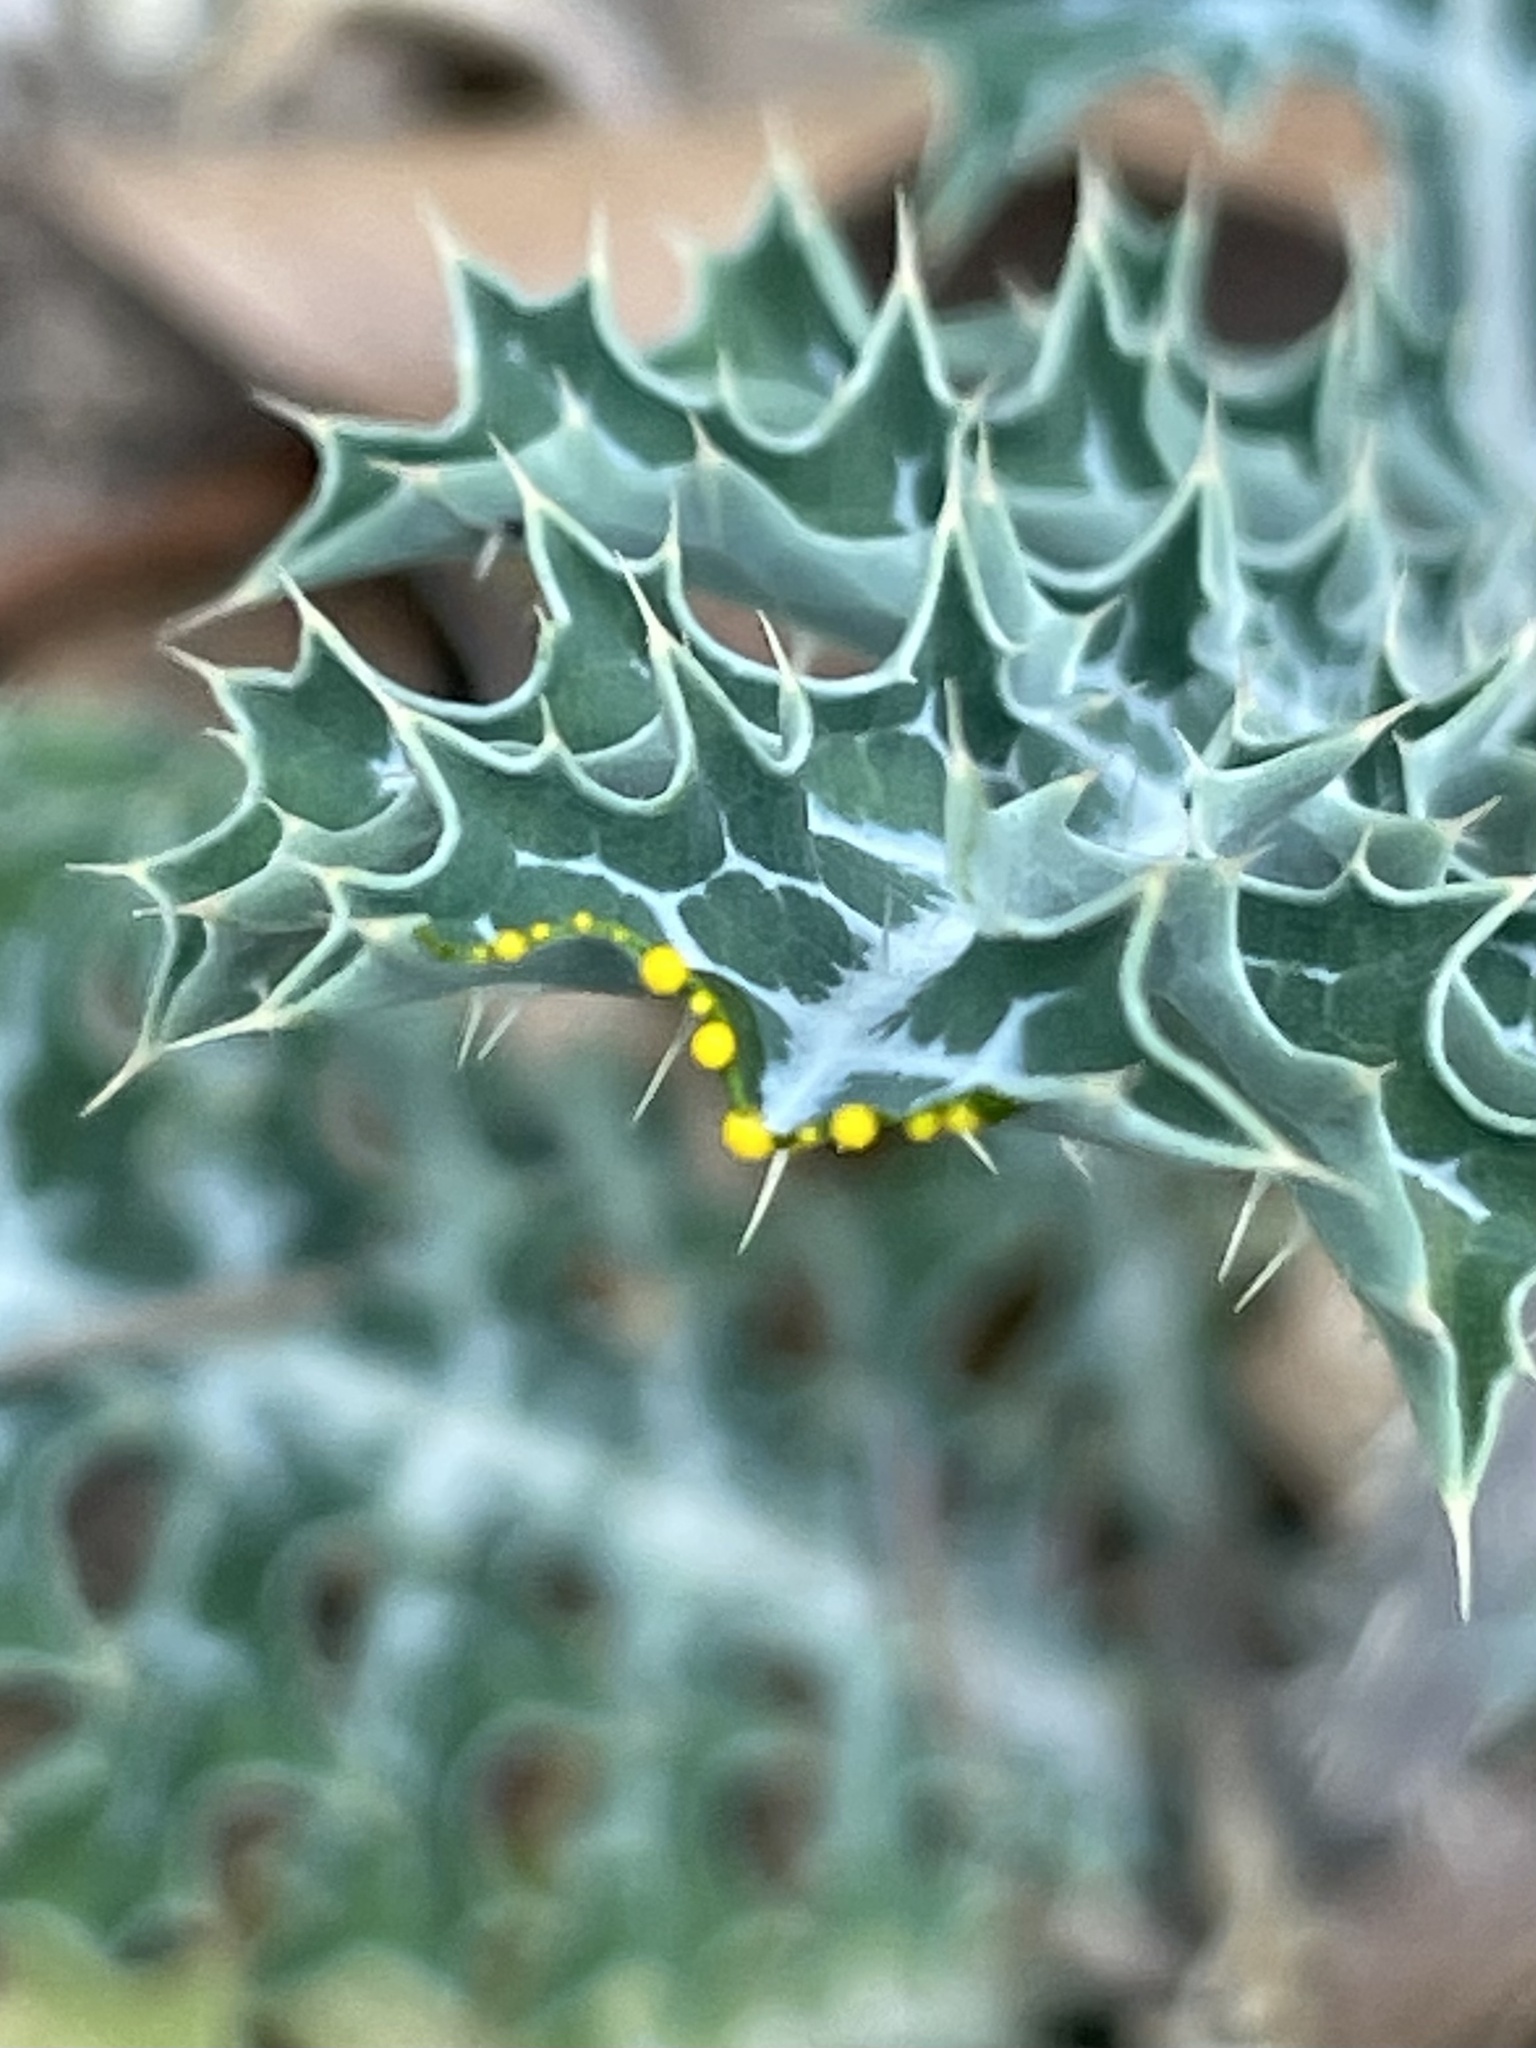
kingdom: Plantae
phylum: Tracheophyta
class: Magnoliopsida
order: Ranunculales
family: Papaveraceae
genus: Argemone
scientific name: Argemone albiflora
